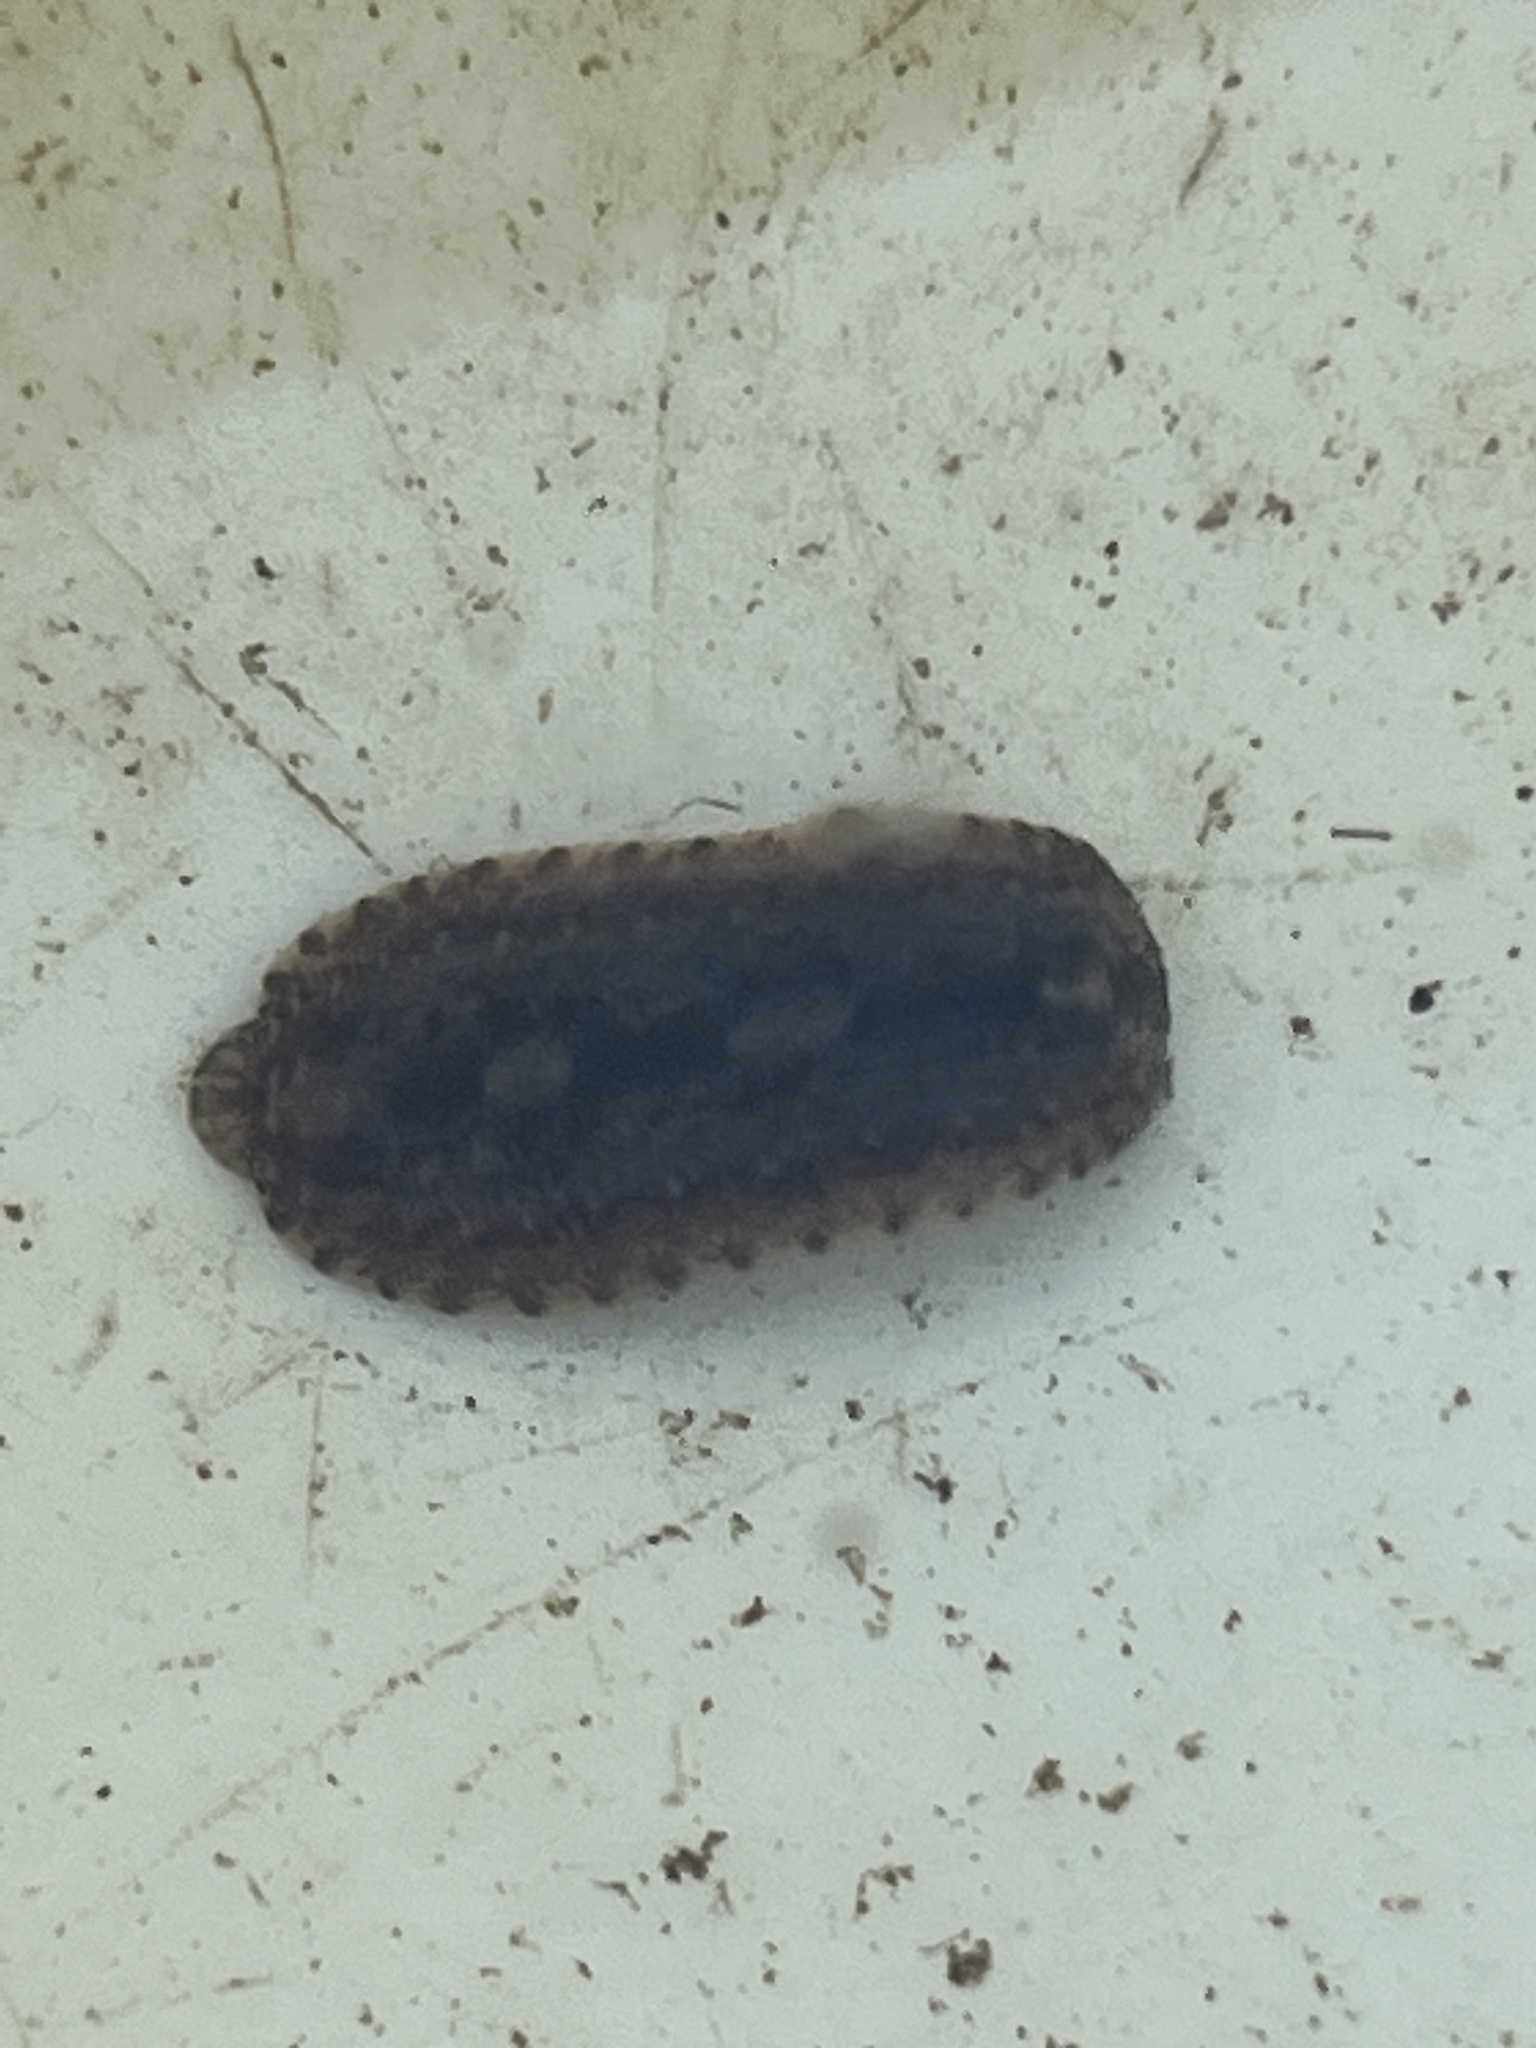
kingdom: Animalia
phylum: Annelida
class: Clitellata
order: Rhynchobdellida
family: Glossiphoniidae
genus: Placobdella
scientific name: Placobdella rugosa
